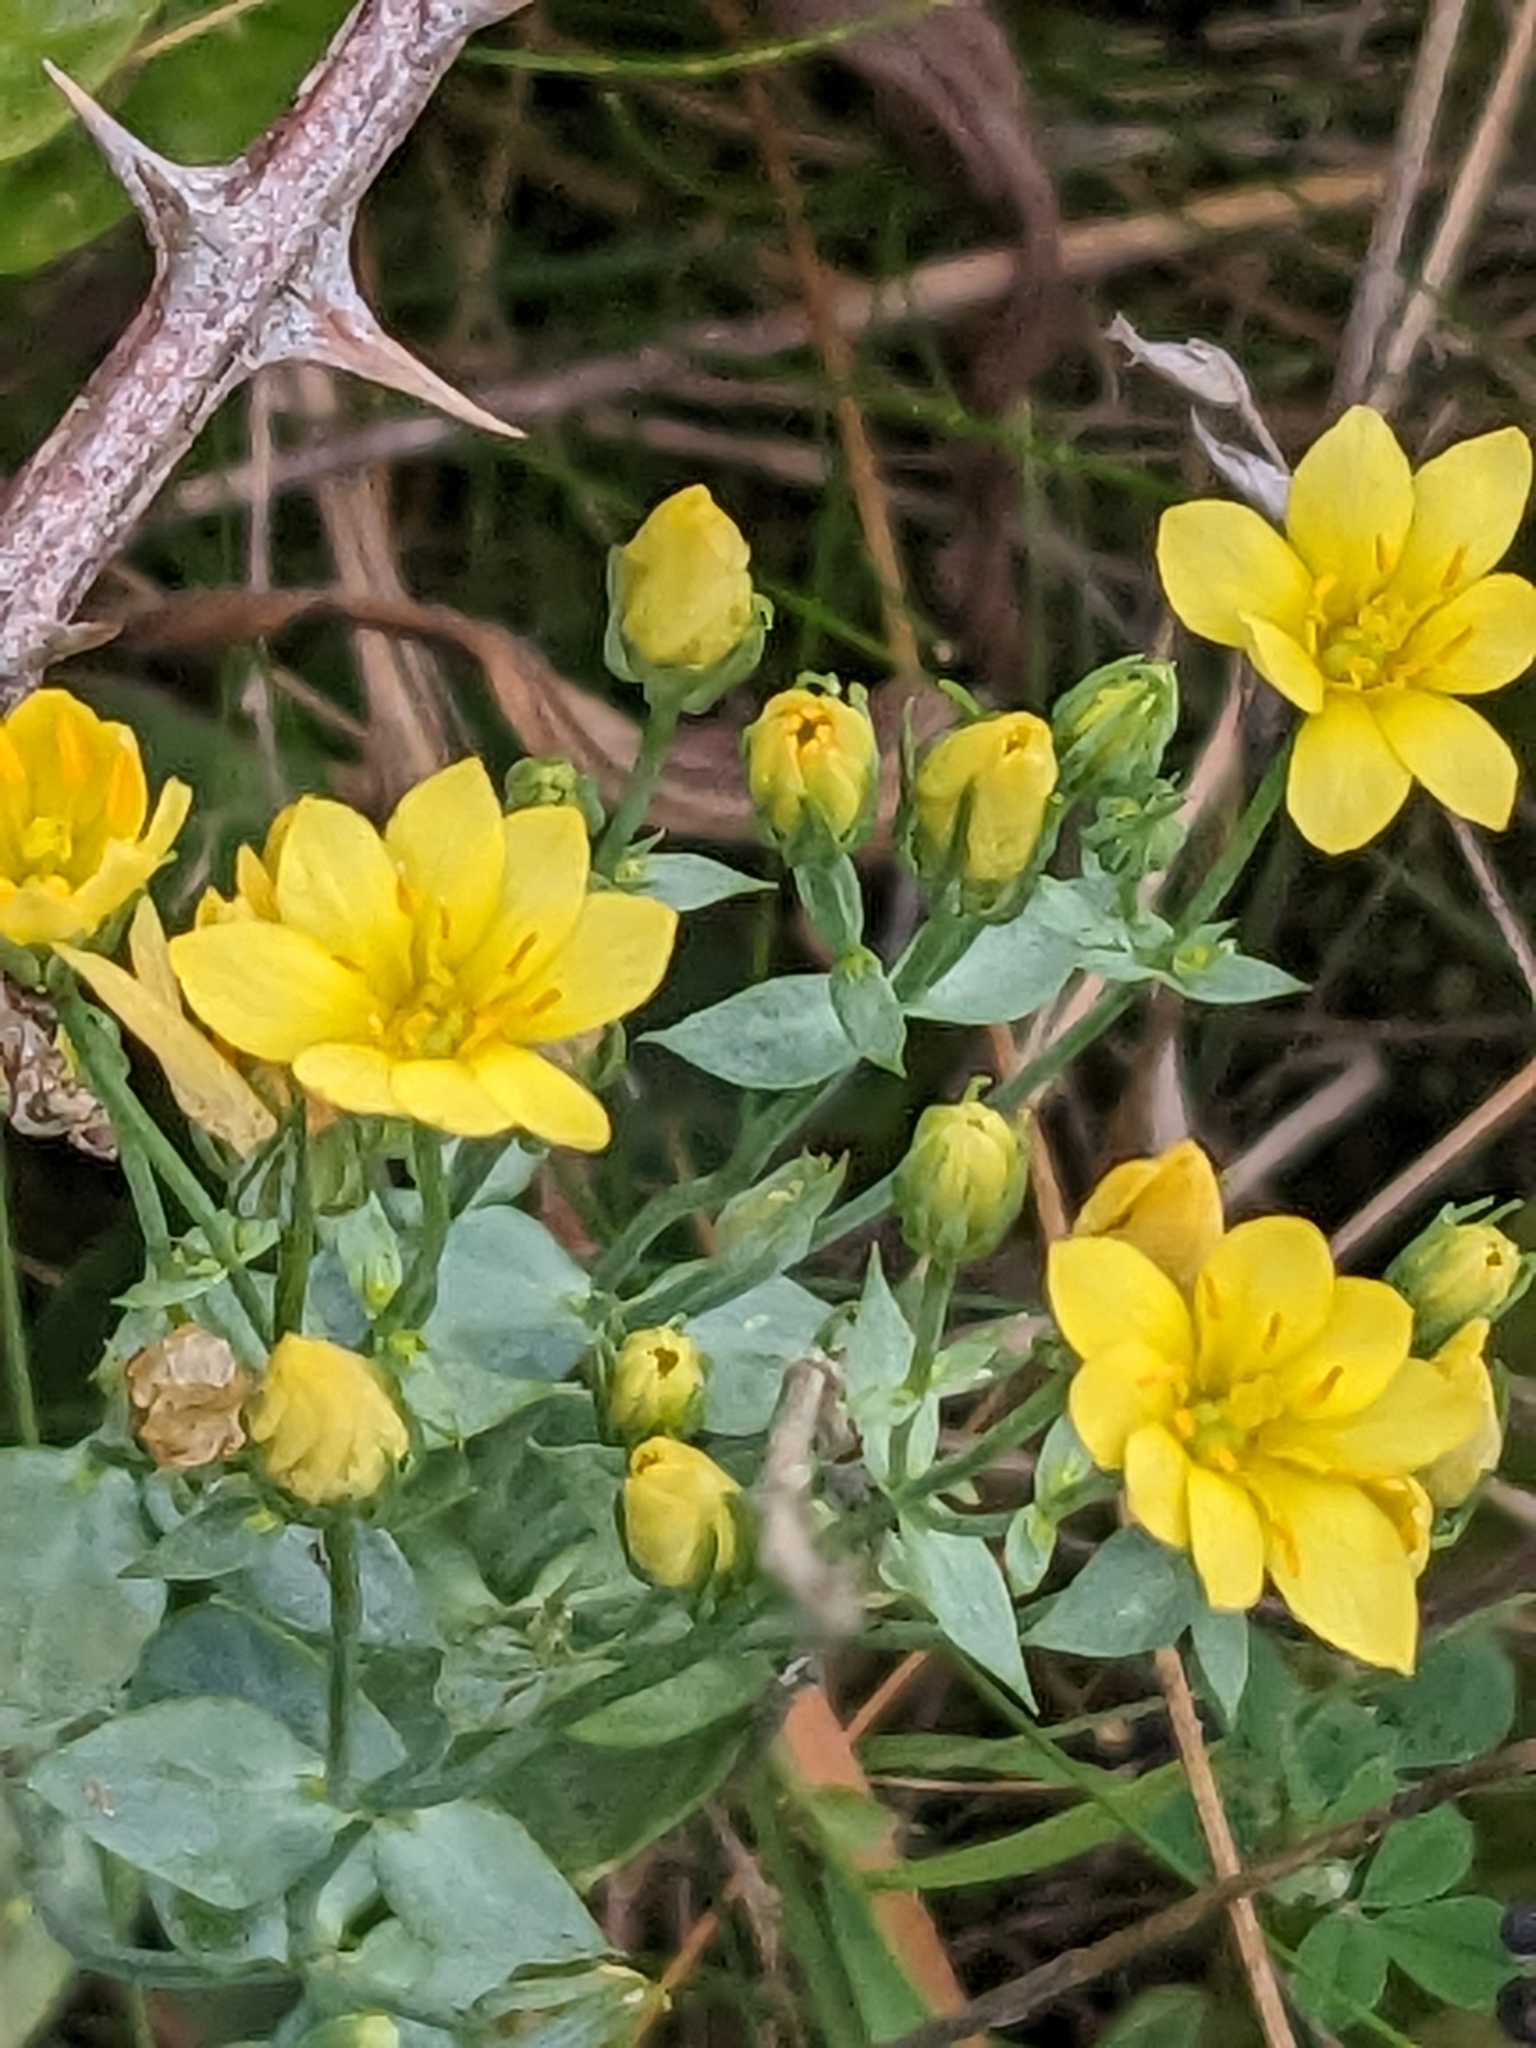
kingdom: Plantae
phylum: Tracheophyta
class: Magnoliopsida
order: Gentianales
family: Gentianaceae
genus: Blackstonia
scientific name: Blackstonia perfoliata
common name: Yellow-wort
